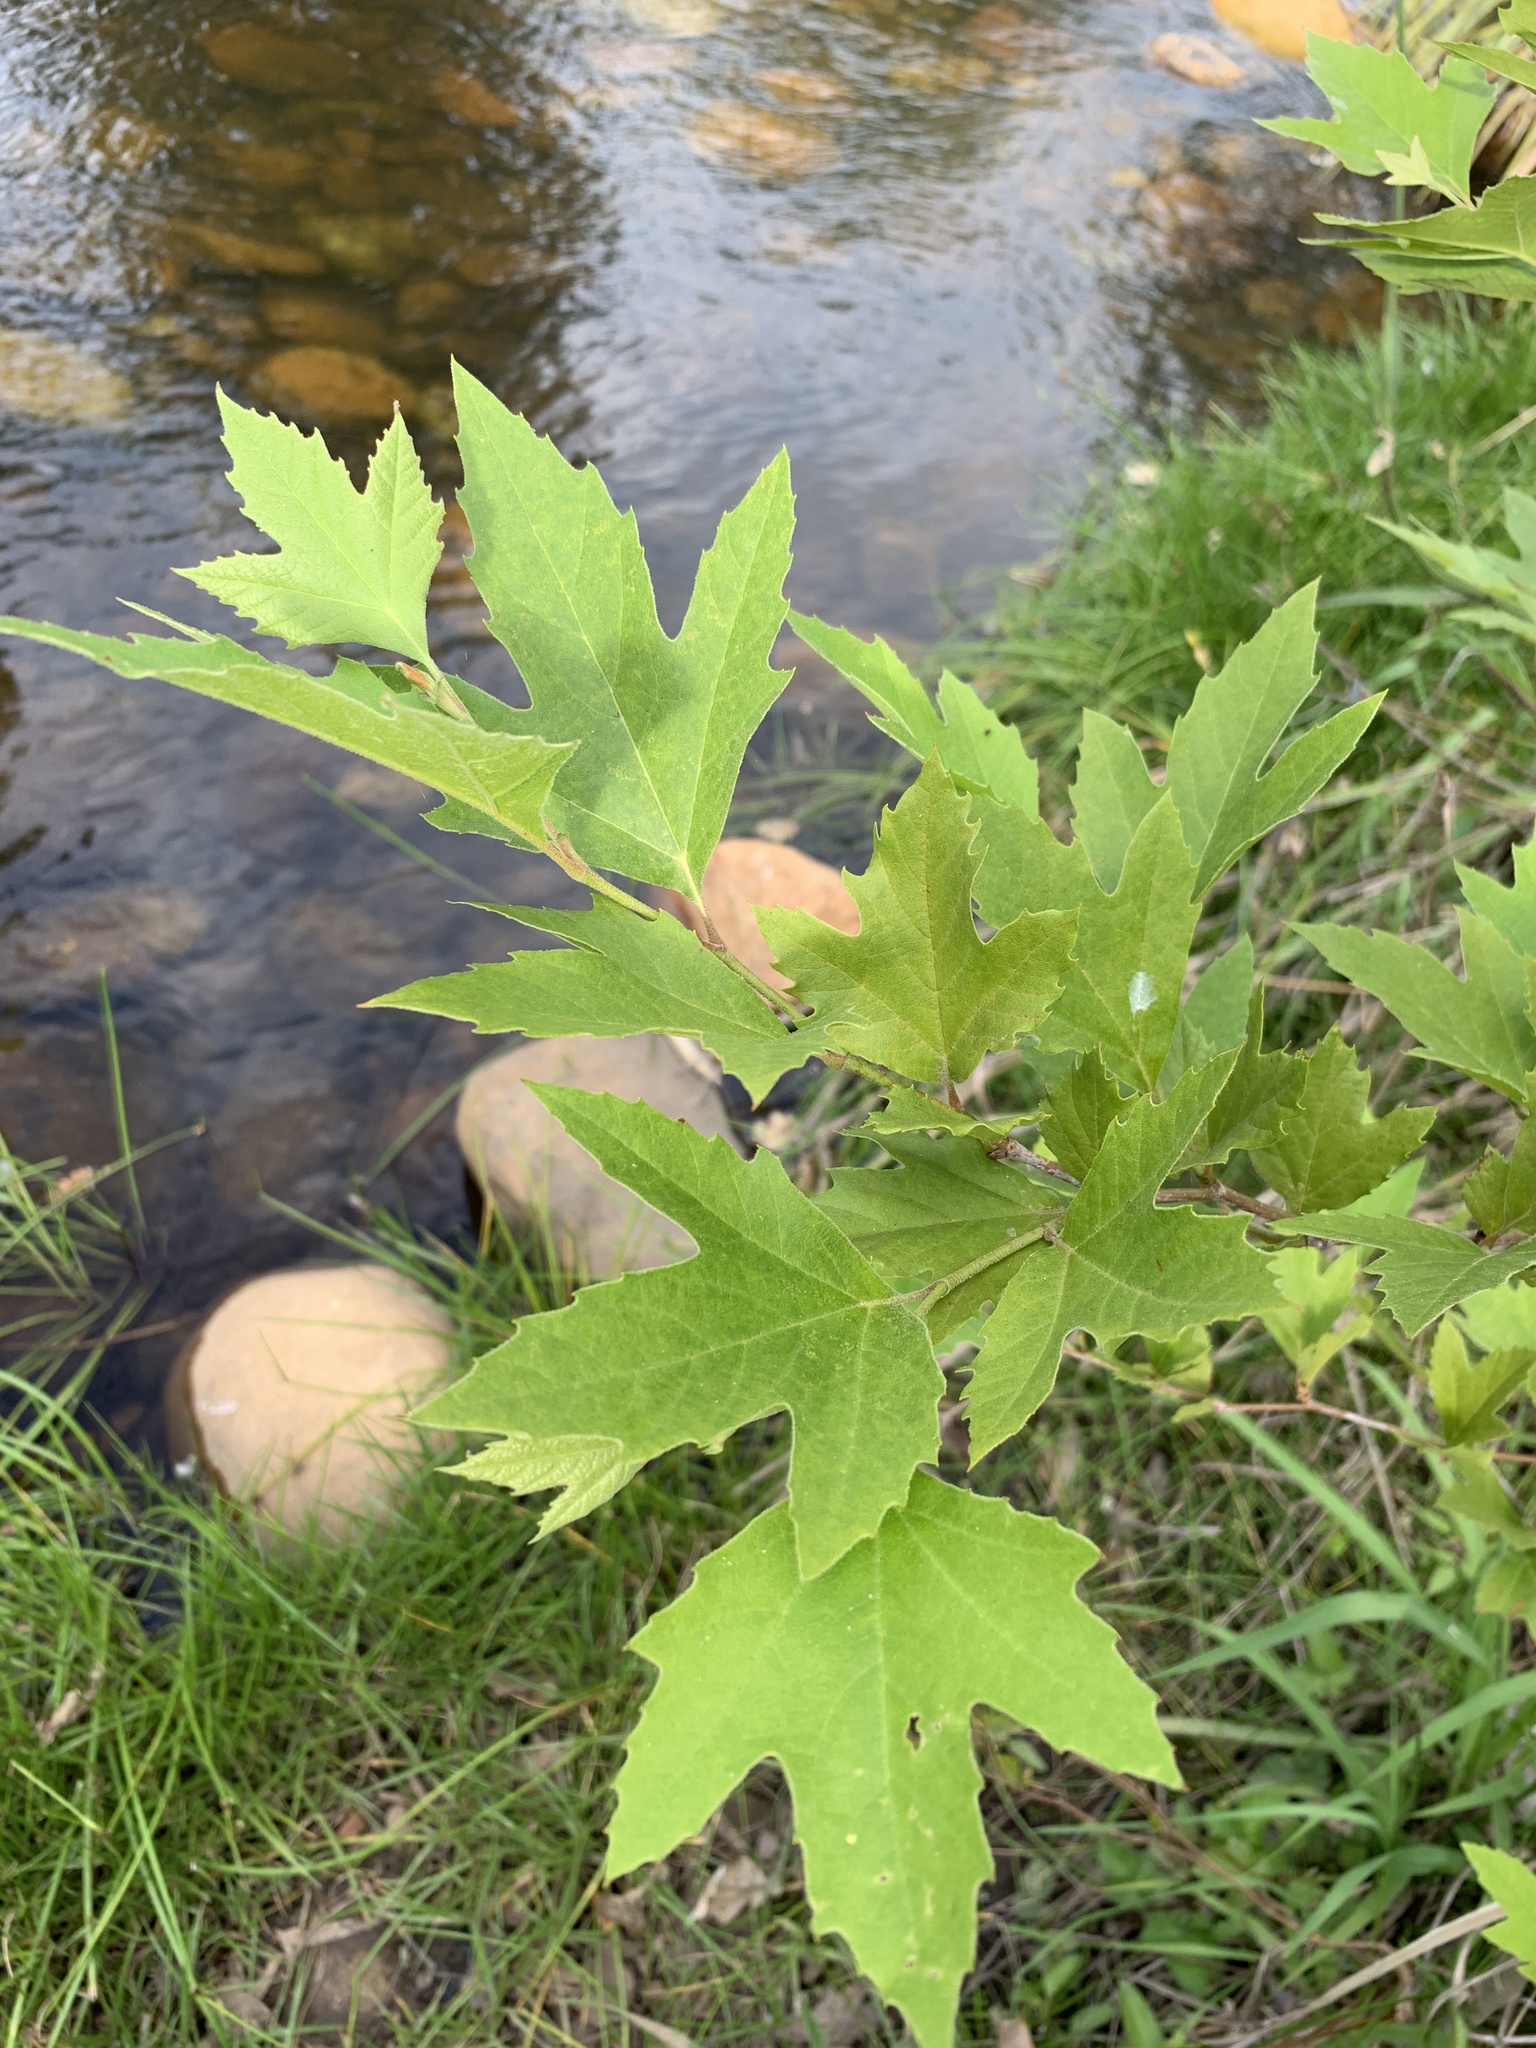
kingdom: Plantae
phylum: Tracheophyta
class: Magnoliopsida
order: Proteales
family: Platanaceae
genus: Platanus
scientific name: Platanus hispanica
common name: London plane
